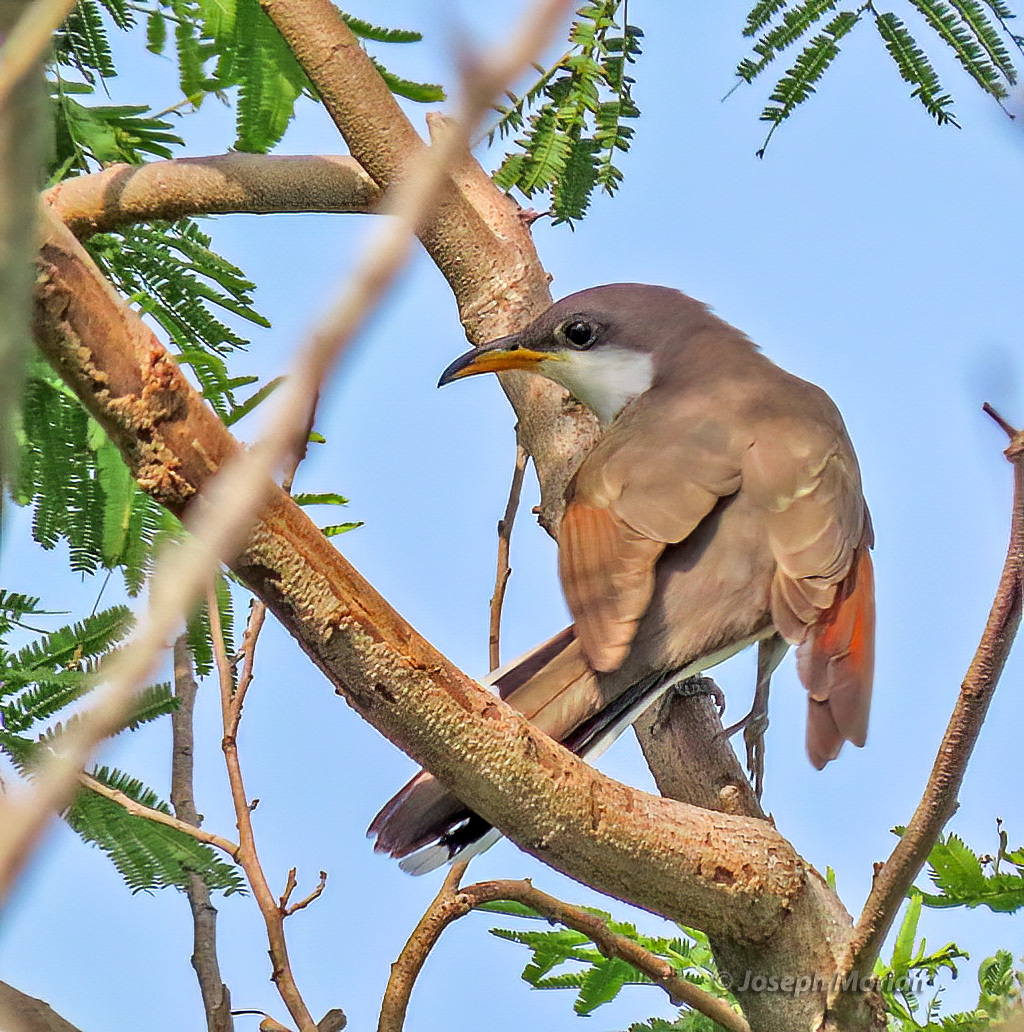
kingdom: Animalia
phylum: Chordata
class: Aves
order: Cuculiformes
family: Cuculidae
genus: Coccyzus
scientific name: Coccyzus americanus
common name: Yellow-billed cuckoo
